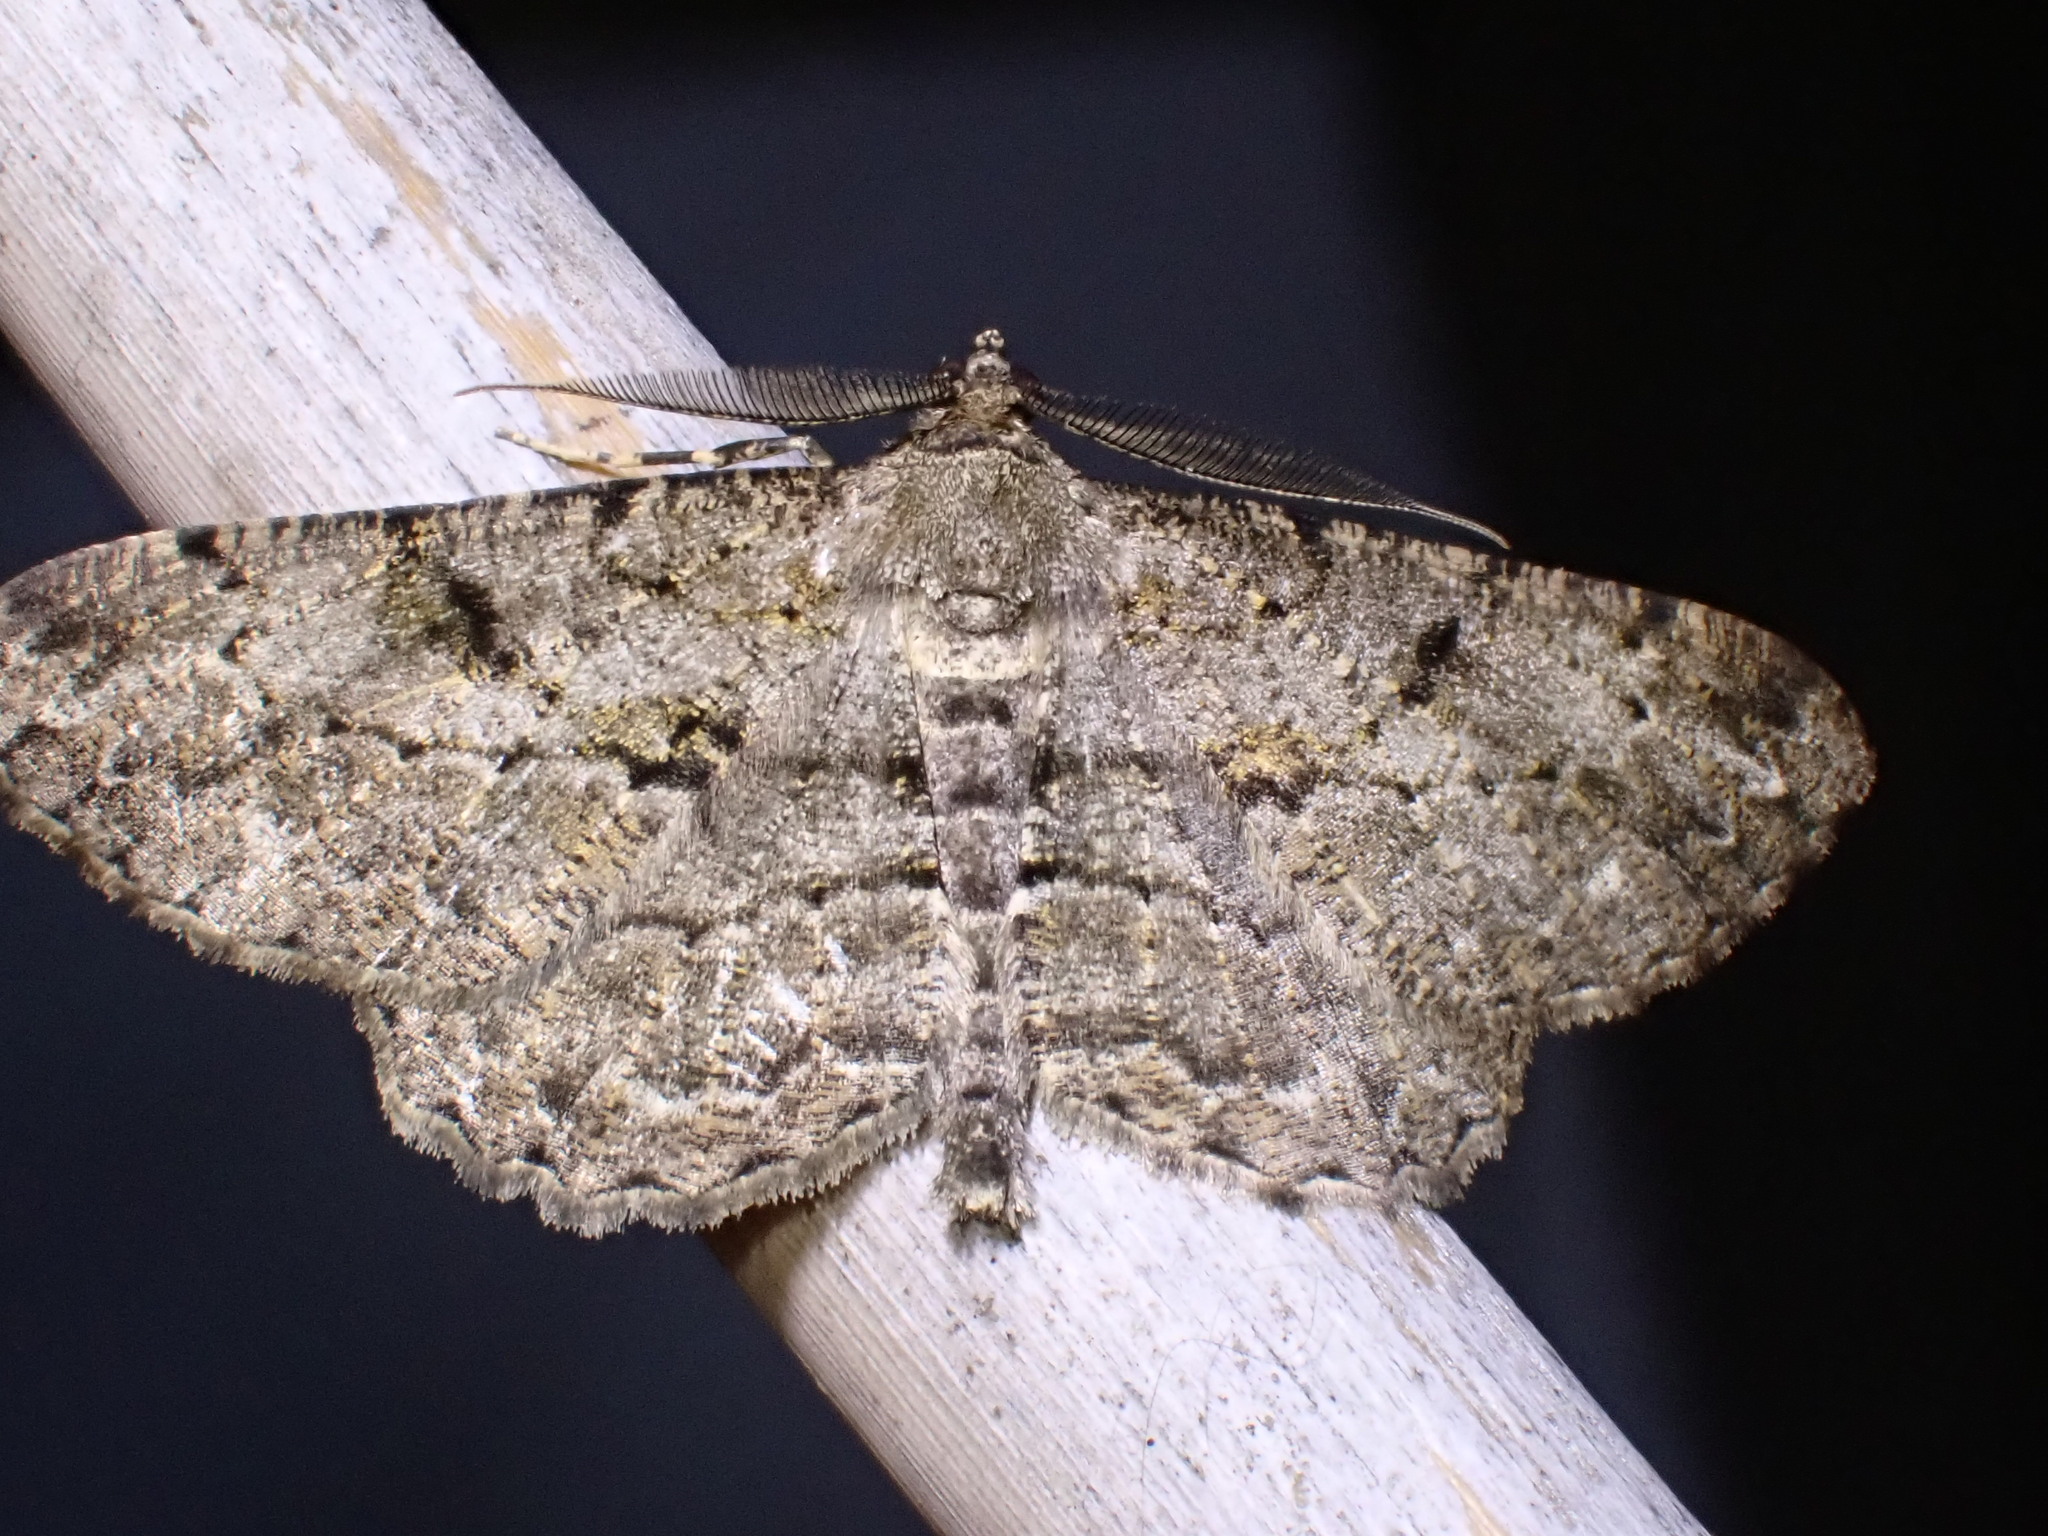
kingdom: Animalia
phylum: Arthropoda
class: Insecta
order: Lepidoptera
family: Geometridae
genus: Peribatodes
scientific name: Peribatodes rhomboidaria
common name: Willow beauty
